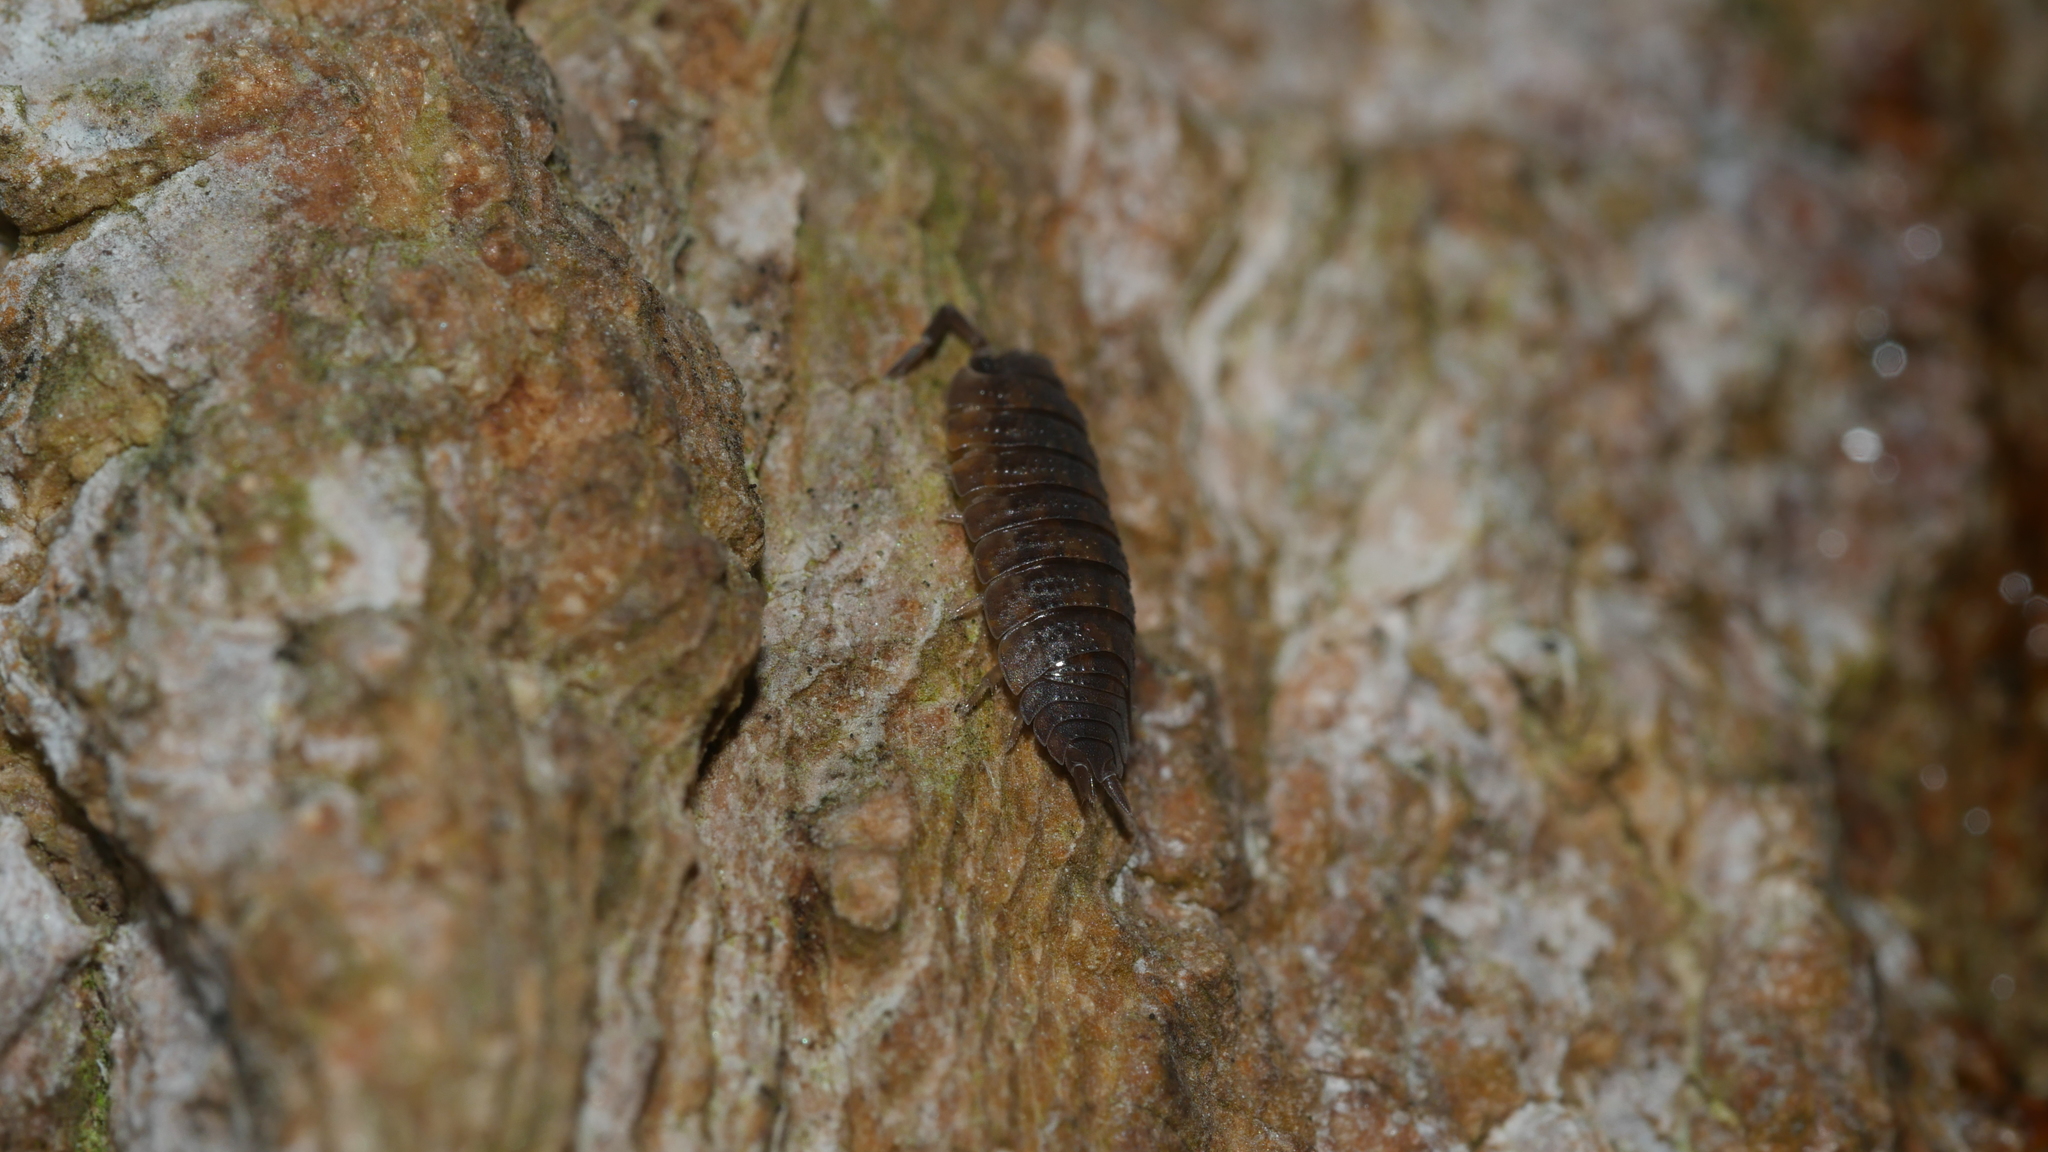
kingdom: Animalia
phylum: Arthropoda
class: Malacostraca
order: Isopoda
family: Porcellionidae
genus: Porcellio
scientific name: Porcellio scaber
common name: Common rough woodlouse
